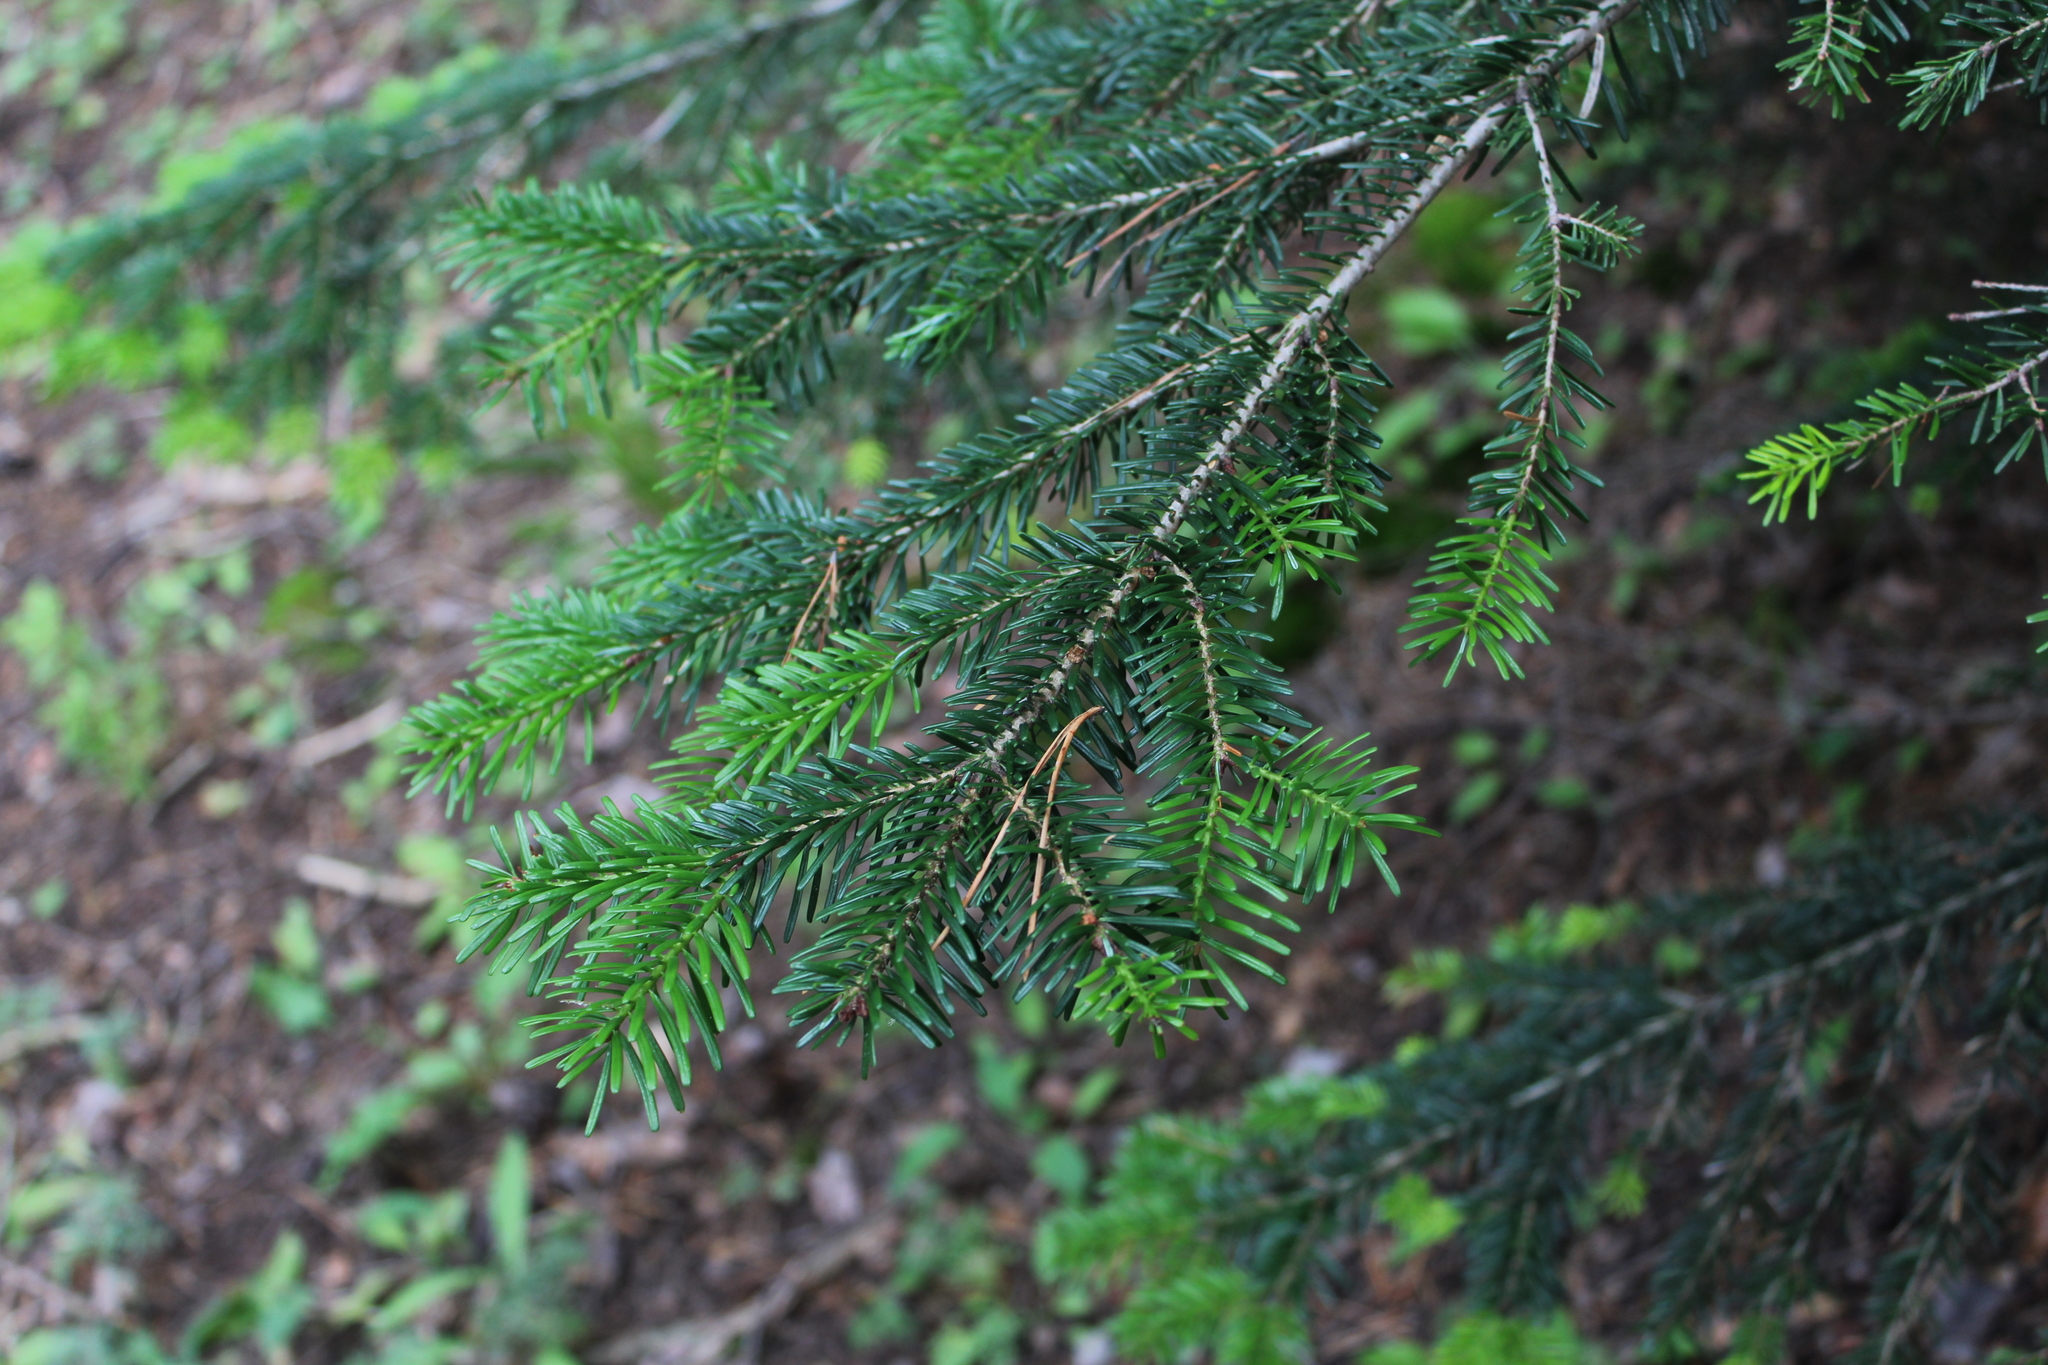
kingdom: Plantae
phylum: Tracheophyta
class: Pinopsida
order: Pinales
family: Pinaceae
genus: Abies
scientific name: Abies nordmanniana
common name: Caucasian fir
